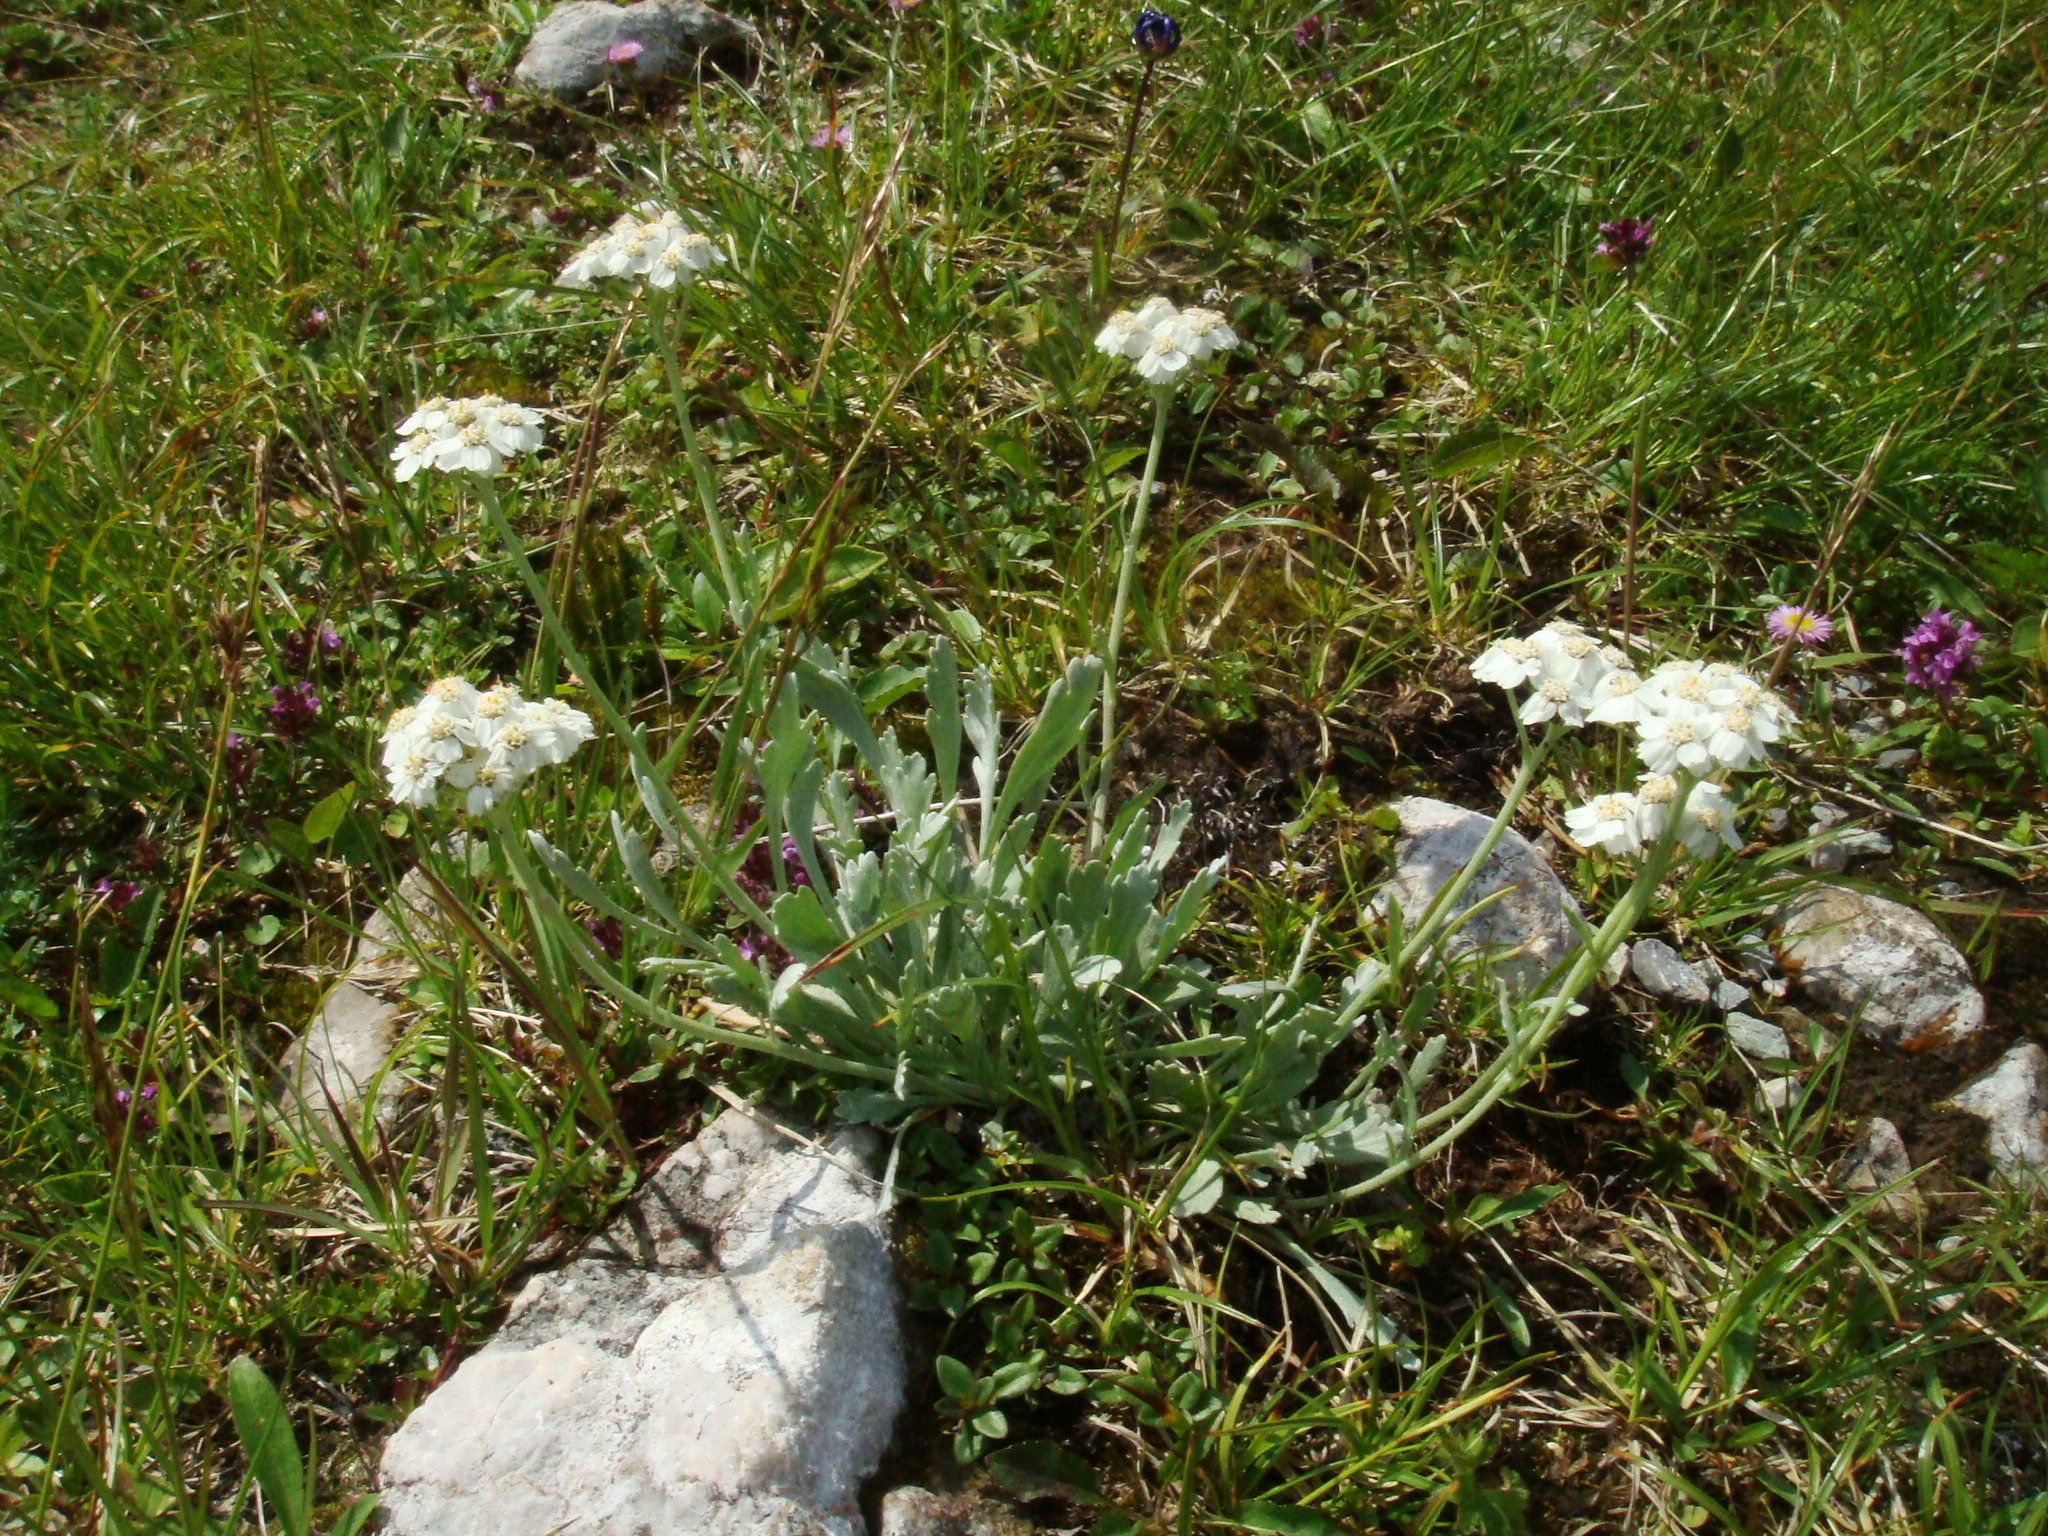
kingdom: Plantae
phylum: Tracheophyta
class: Magnoliopsida
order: Asterales
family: Asteraceae
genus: Achillea
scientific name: Achillea clavennae
